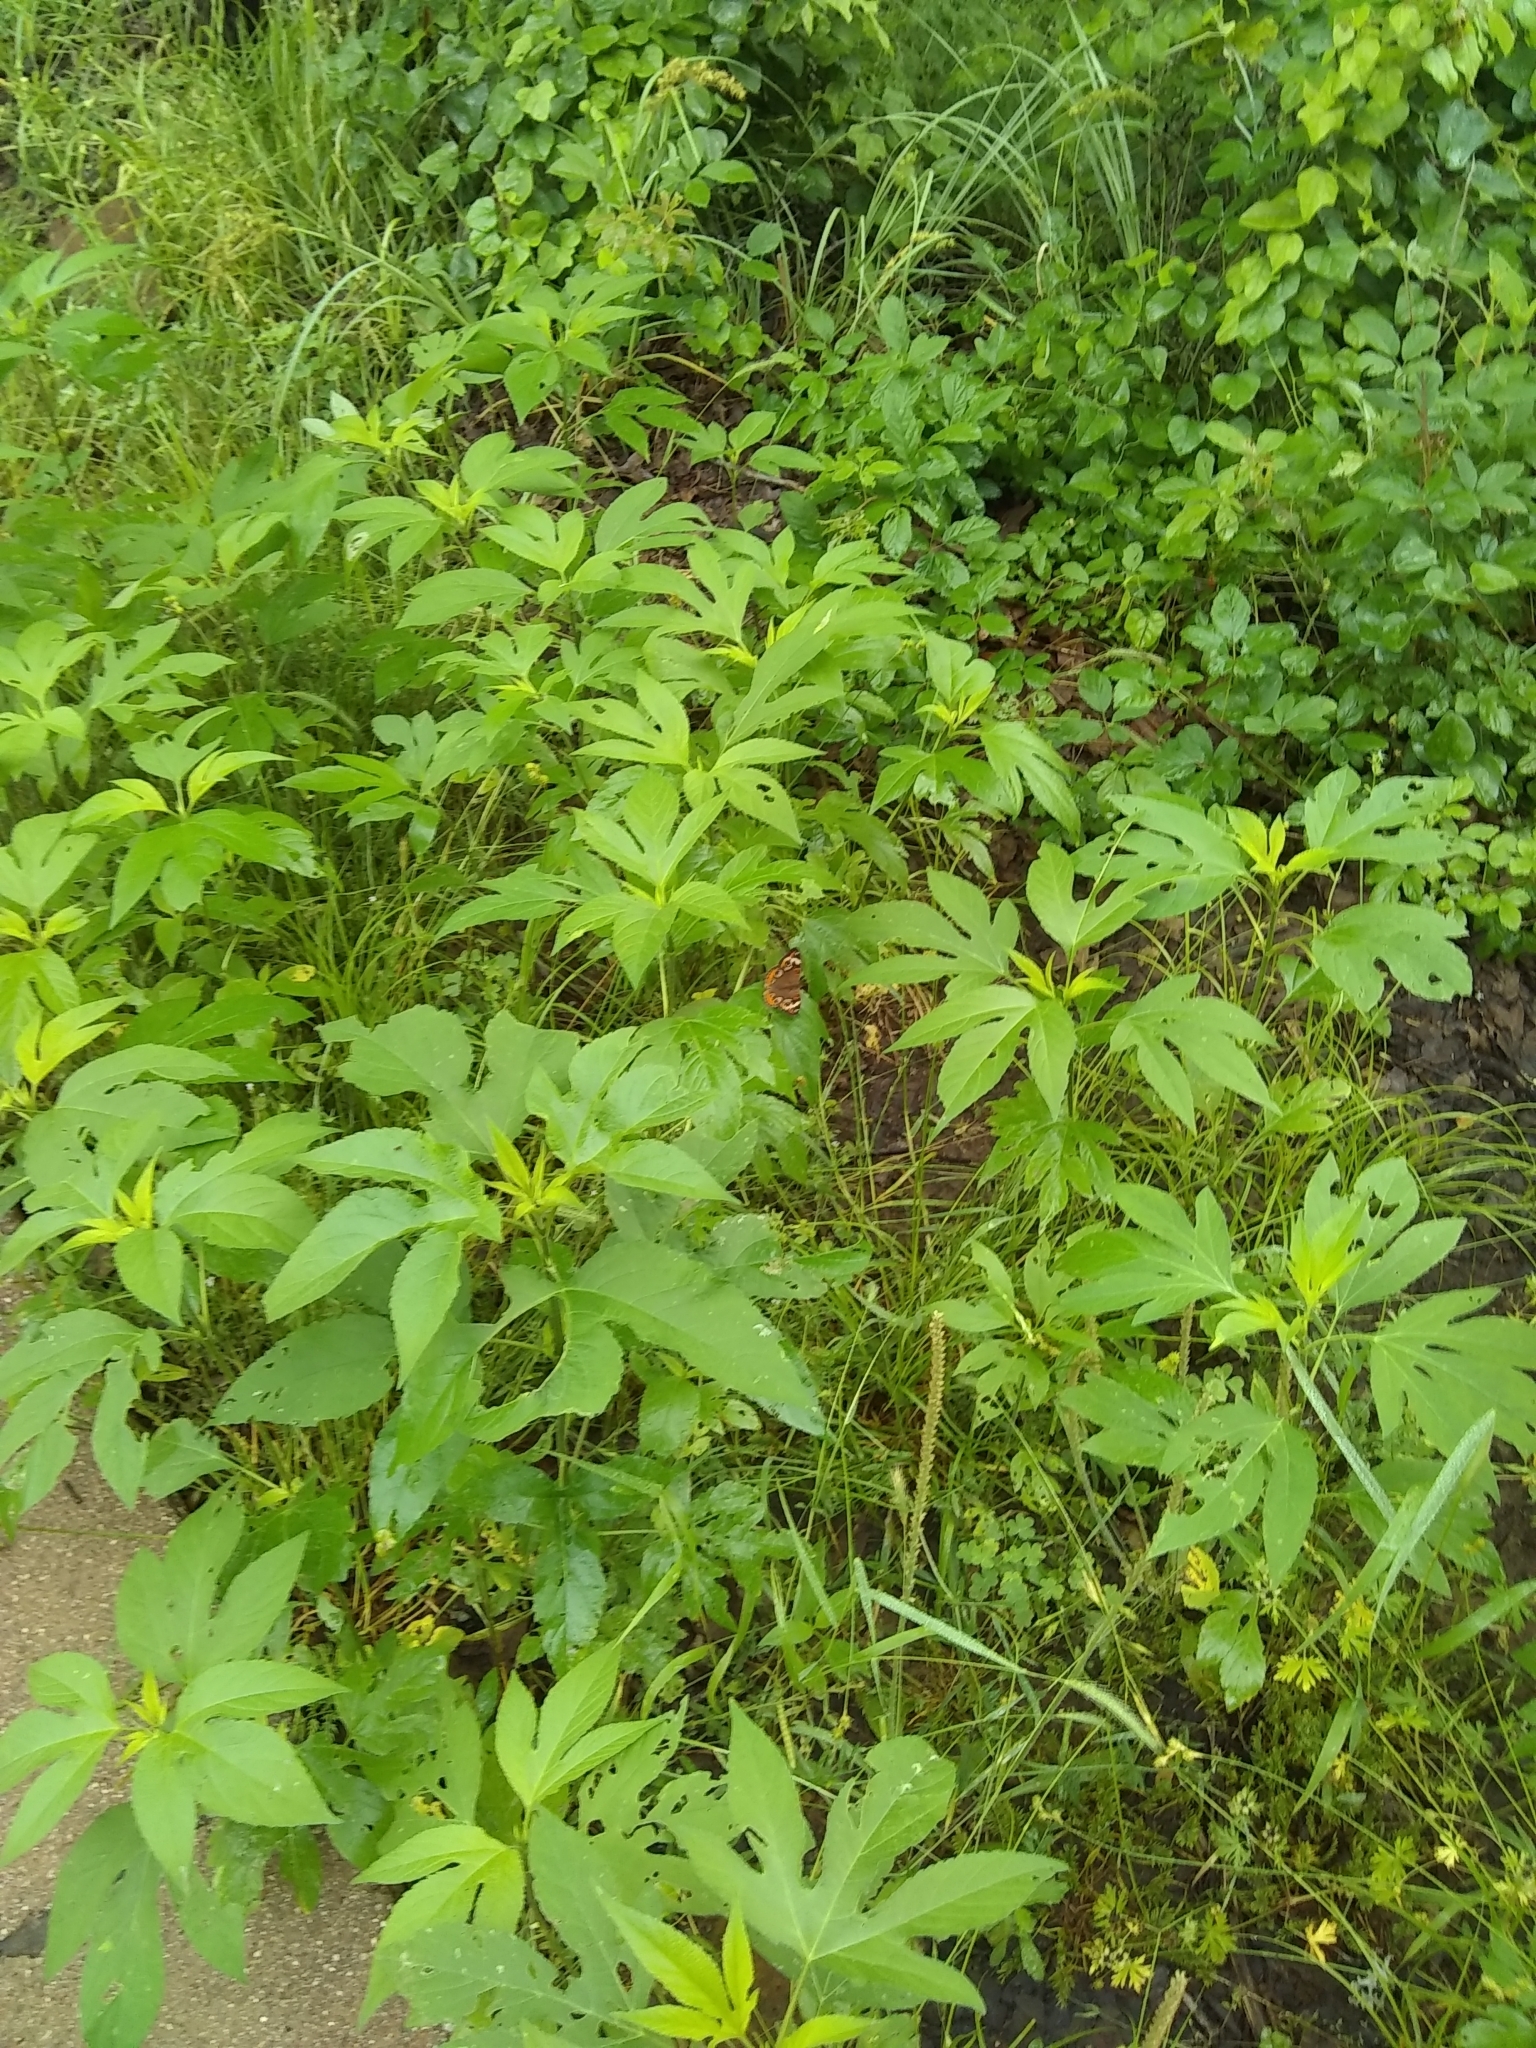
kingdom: Plantae
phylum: Tracheophyta
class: Magnoliopsida
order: Asterales
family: Asteraceae
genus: Ambrosia
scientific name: Ambrosia trifida
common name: Giant ragweed
